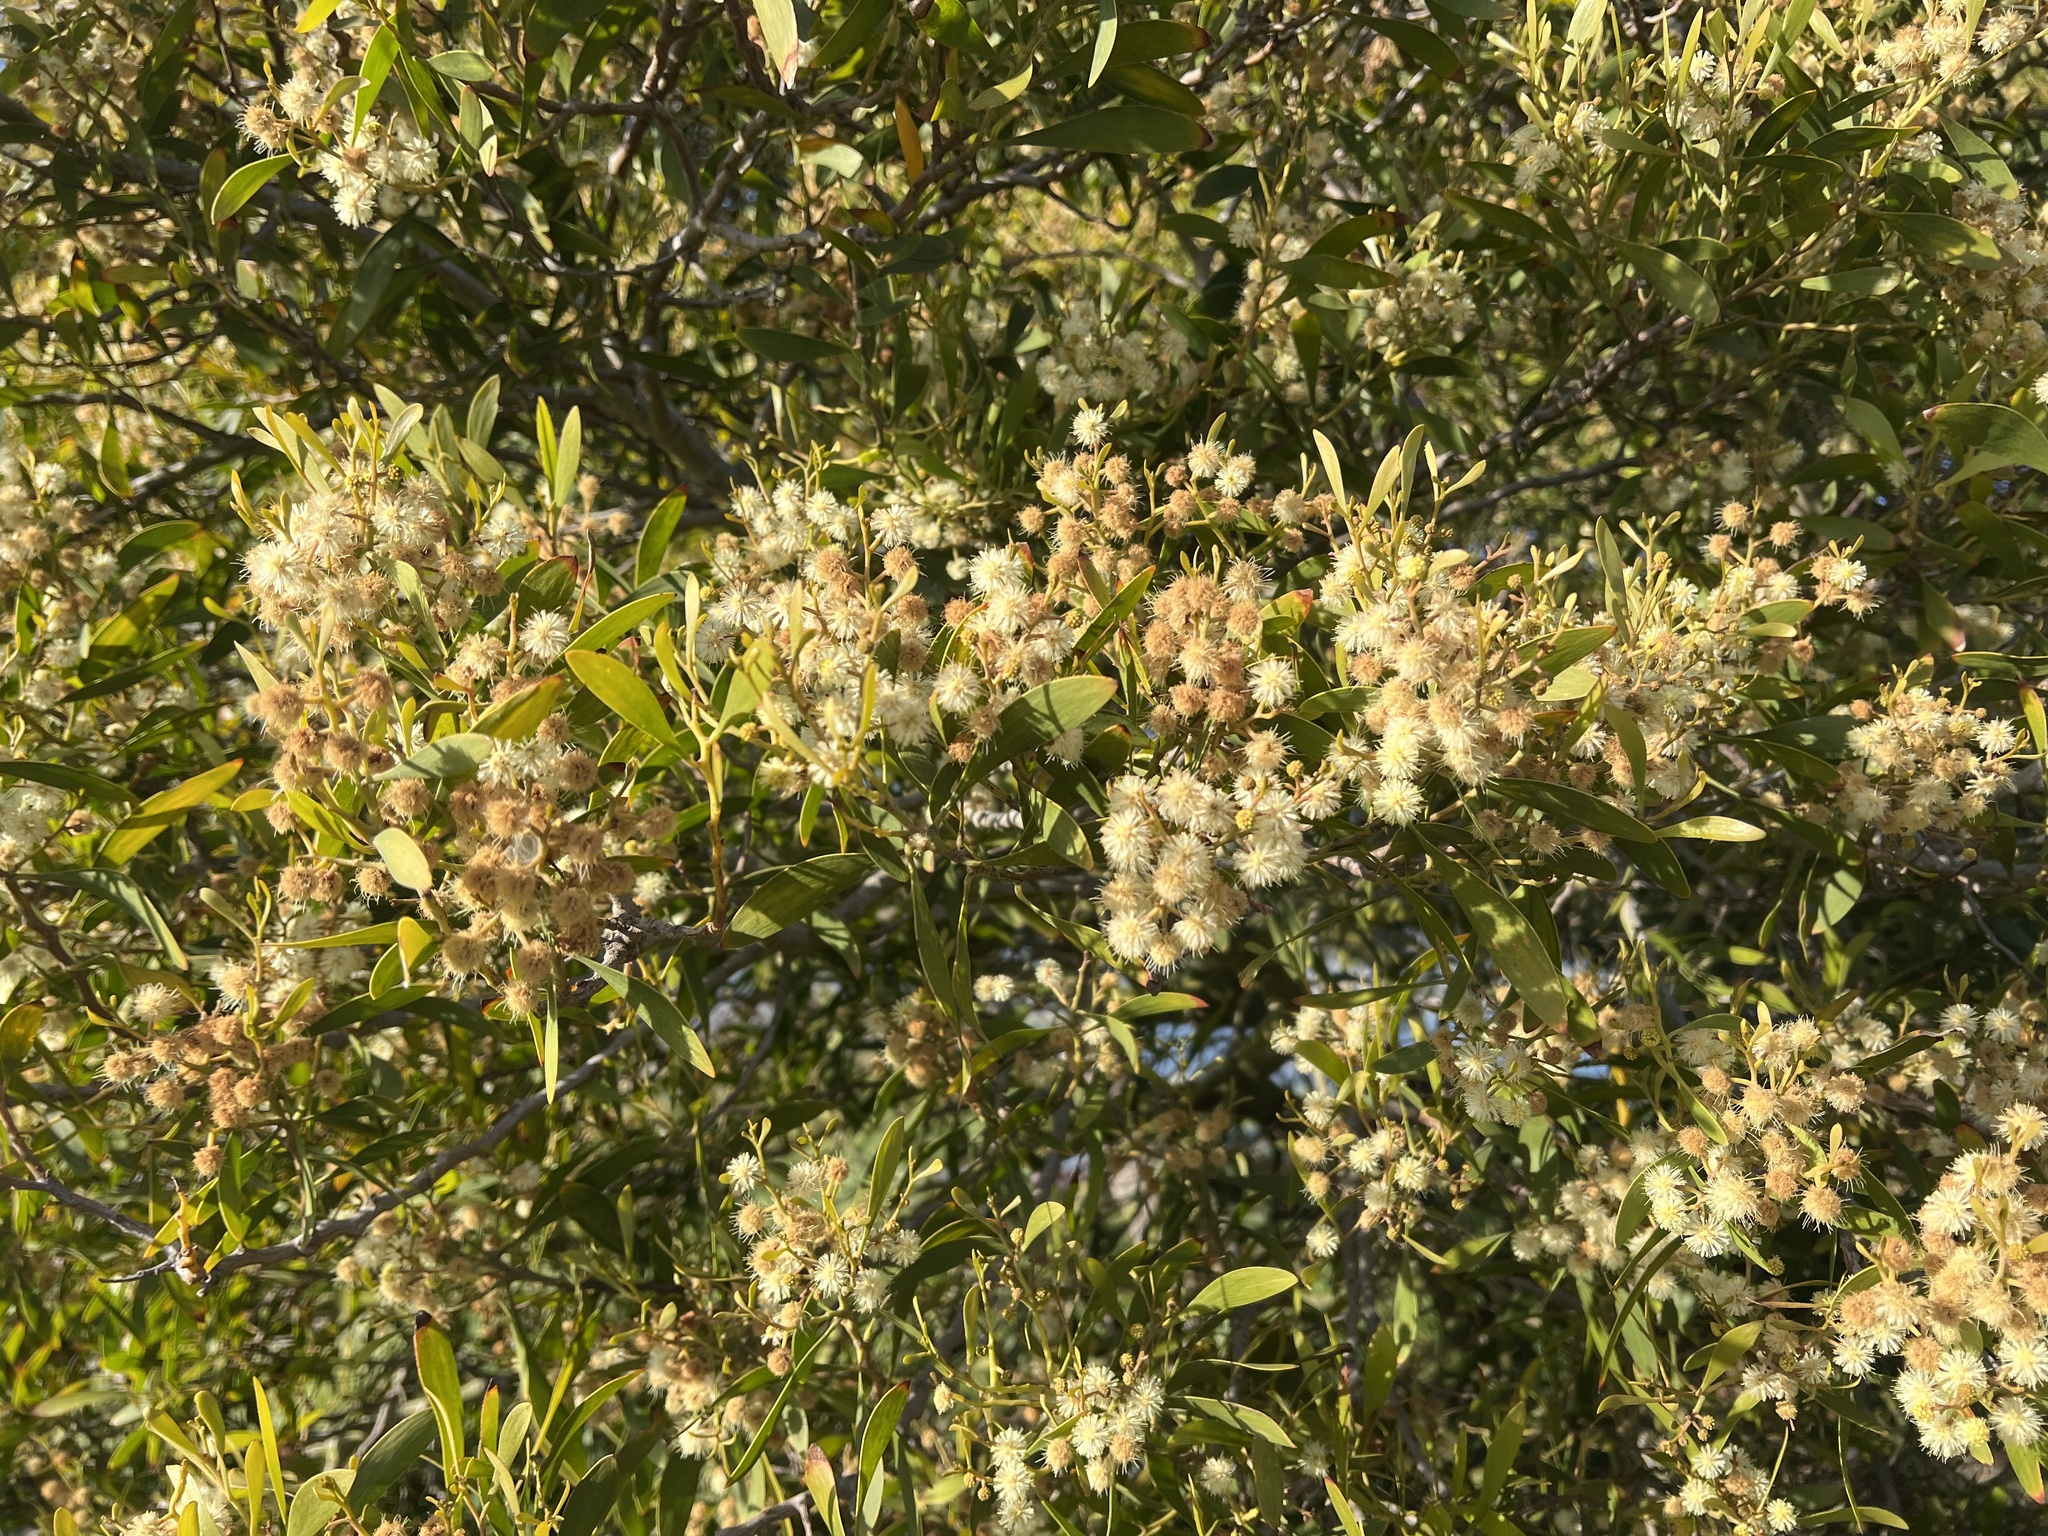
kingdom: Plantae
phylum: Tracheophyta
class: Magnoliopsida
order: Fabales
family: Fabaceae
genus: Acacia
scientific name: Acacia melanoxylon
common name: Blackwood
